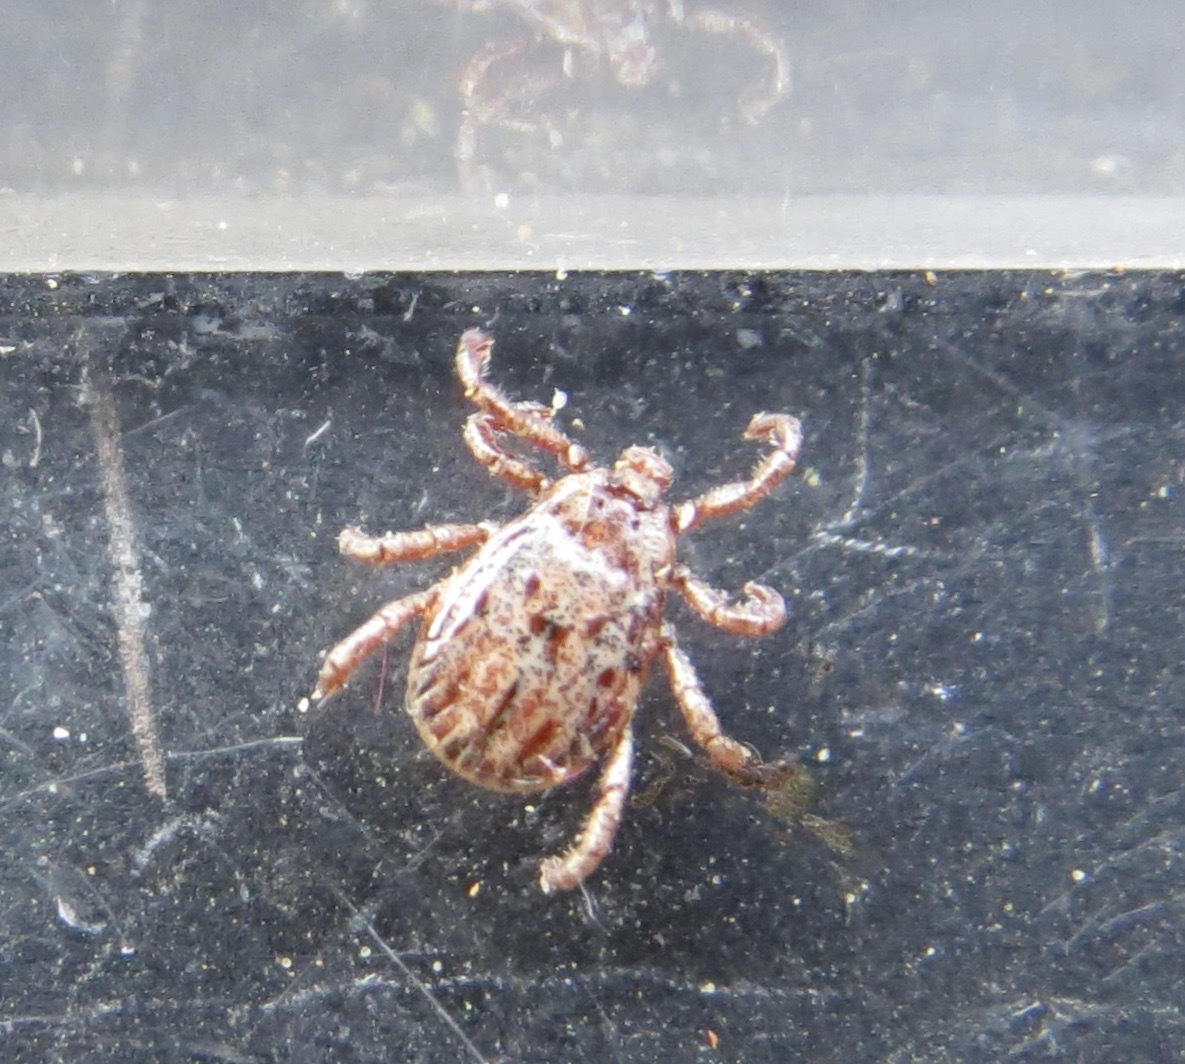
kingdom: Animalia
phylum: Arthropoda
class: Arachnida
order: Ixodida
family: Ixodidae
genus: Dermacentor
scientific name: Dermacentor occidentalis
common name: Net tick
